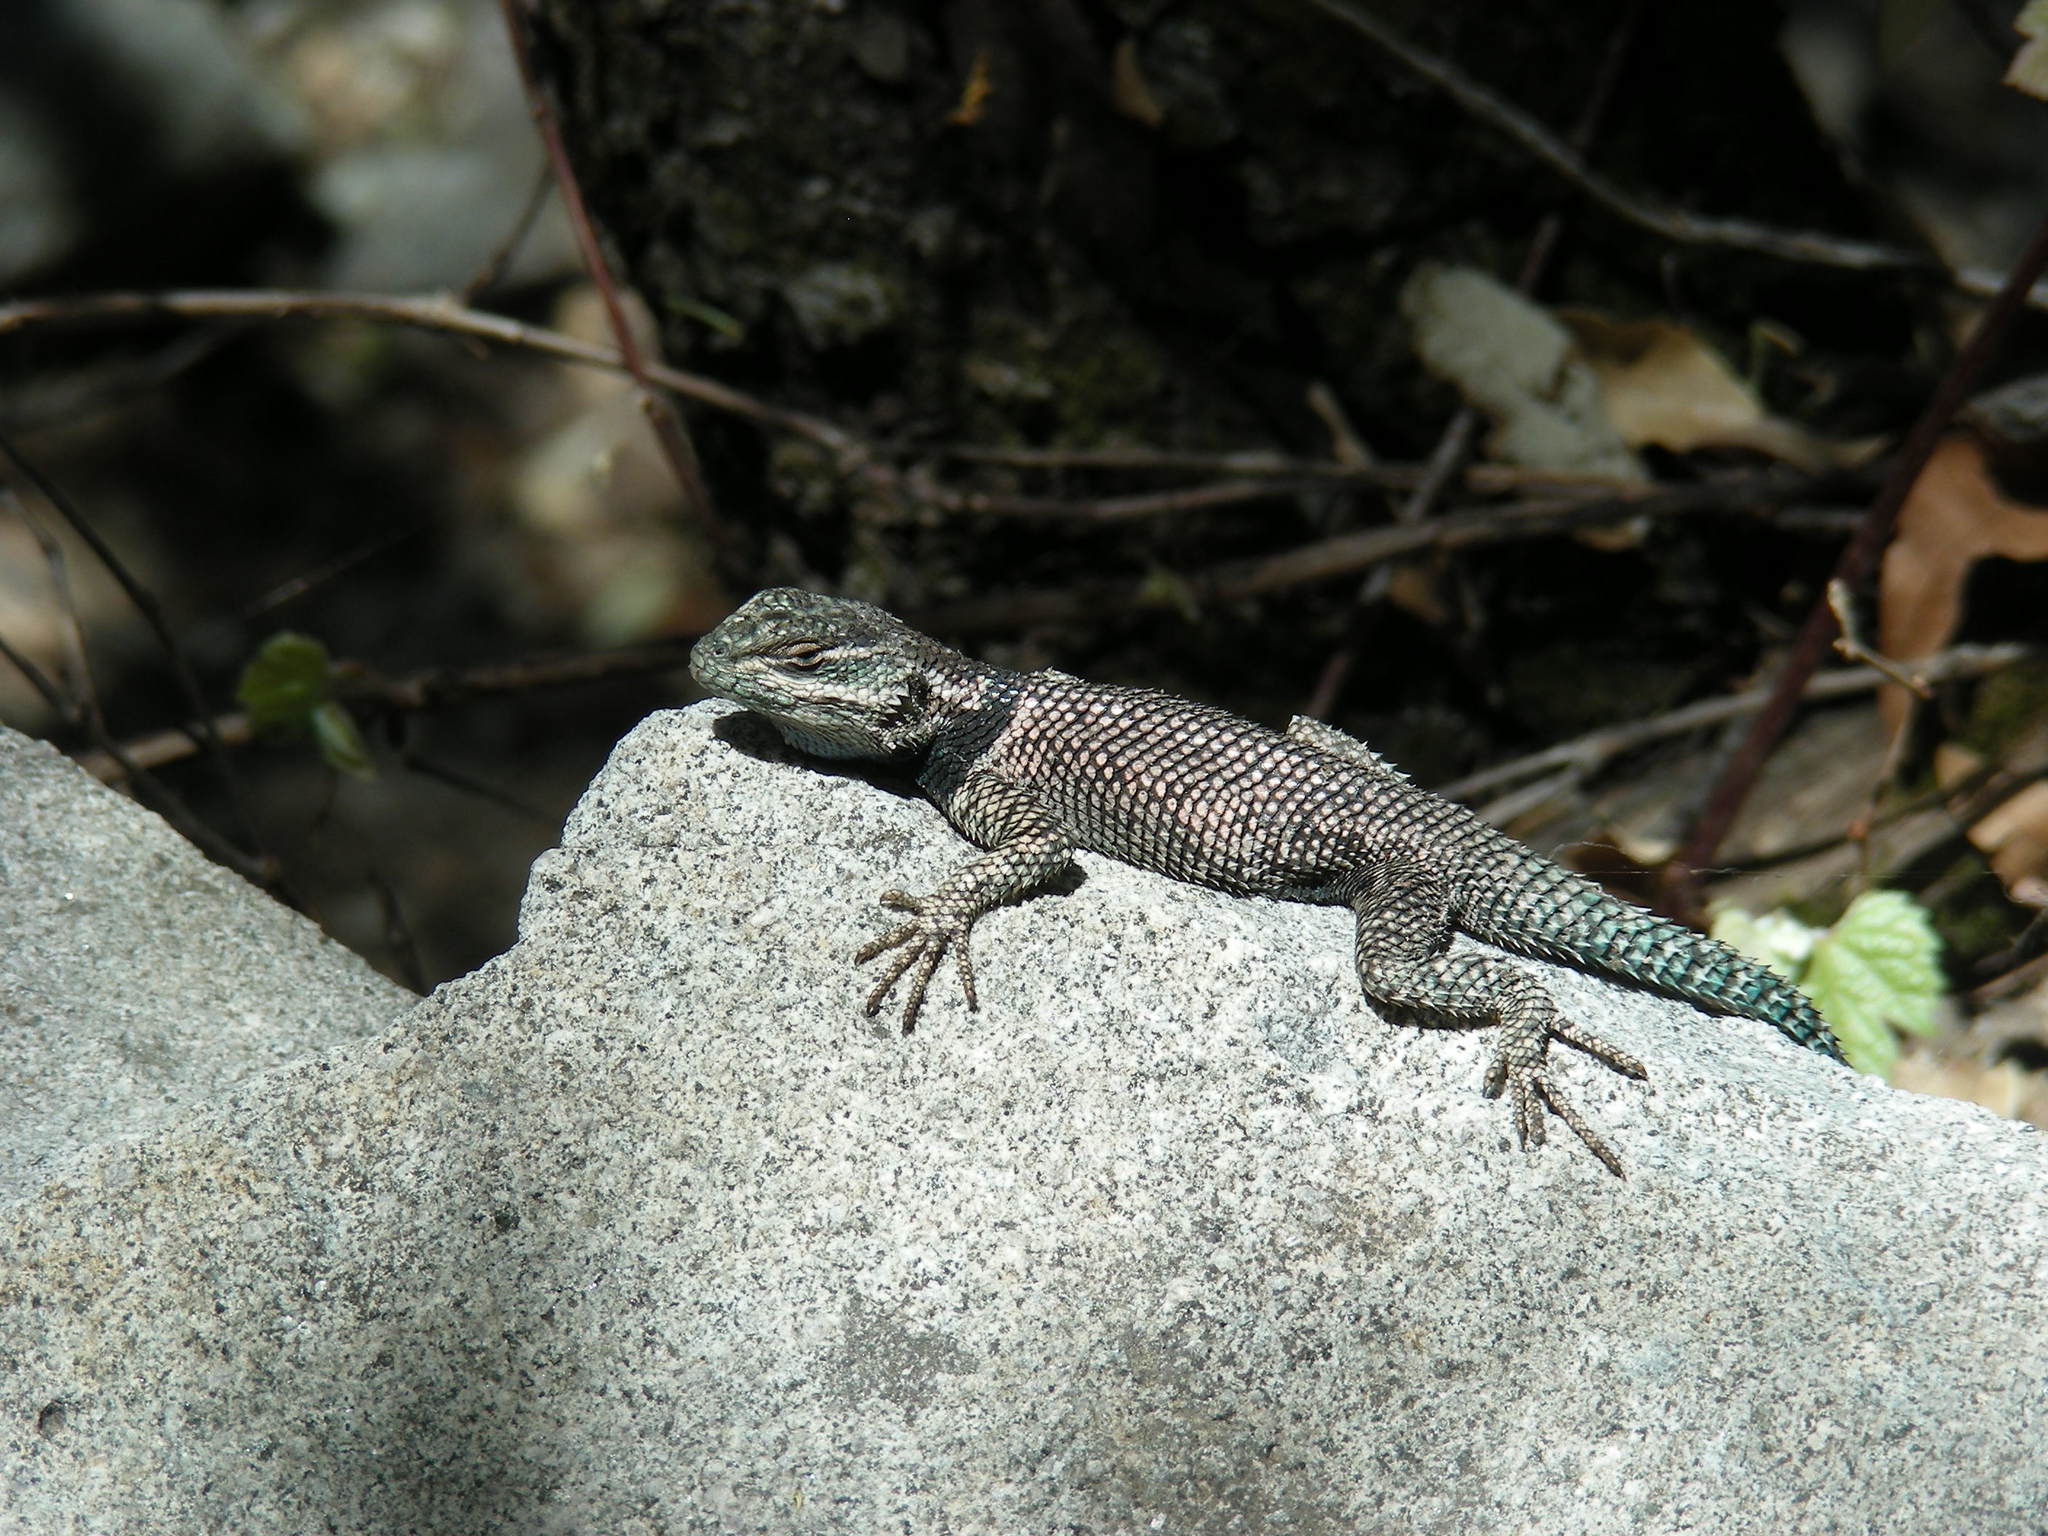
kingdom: Animalia
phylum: Chordata
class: Squamata
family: Phrynosomatidae
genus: Sceloporus
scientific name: Sceloporus jarrovii
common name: Yarrow's spiny lizard
